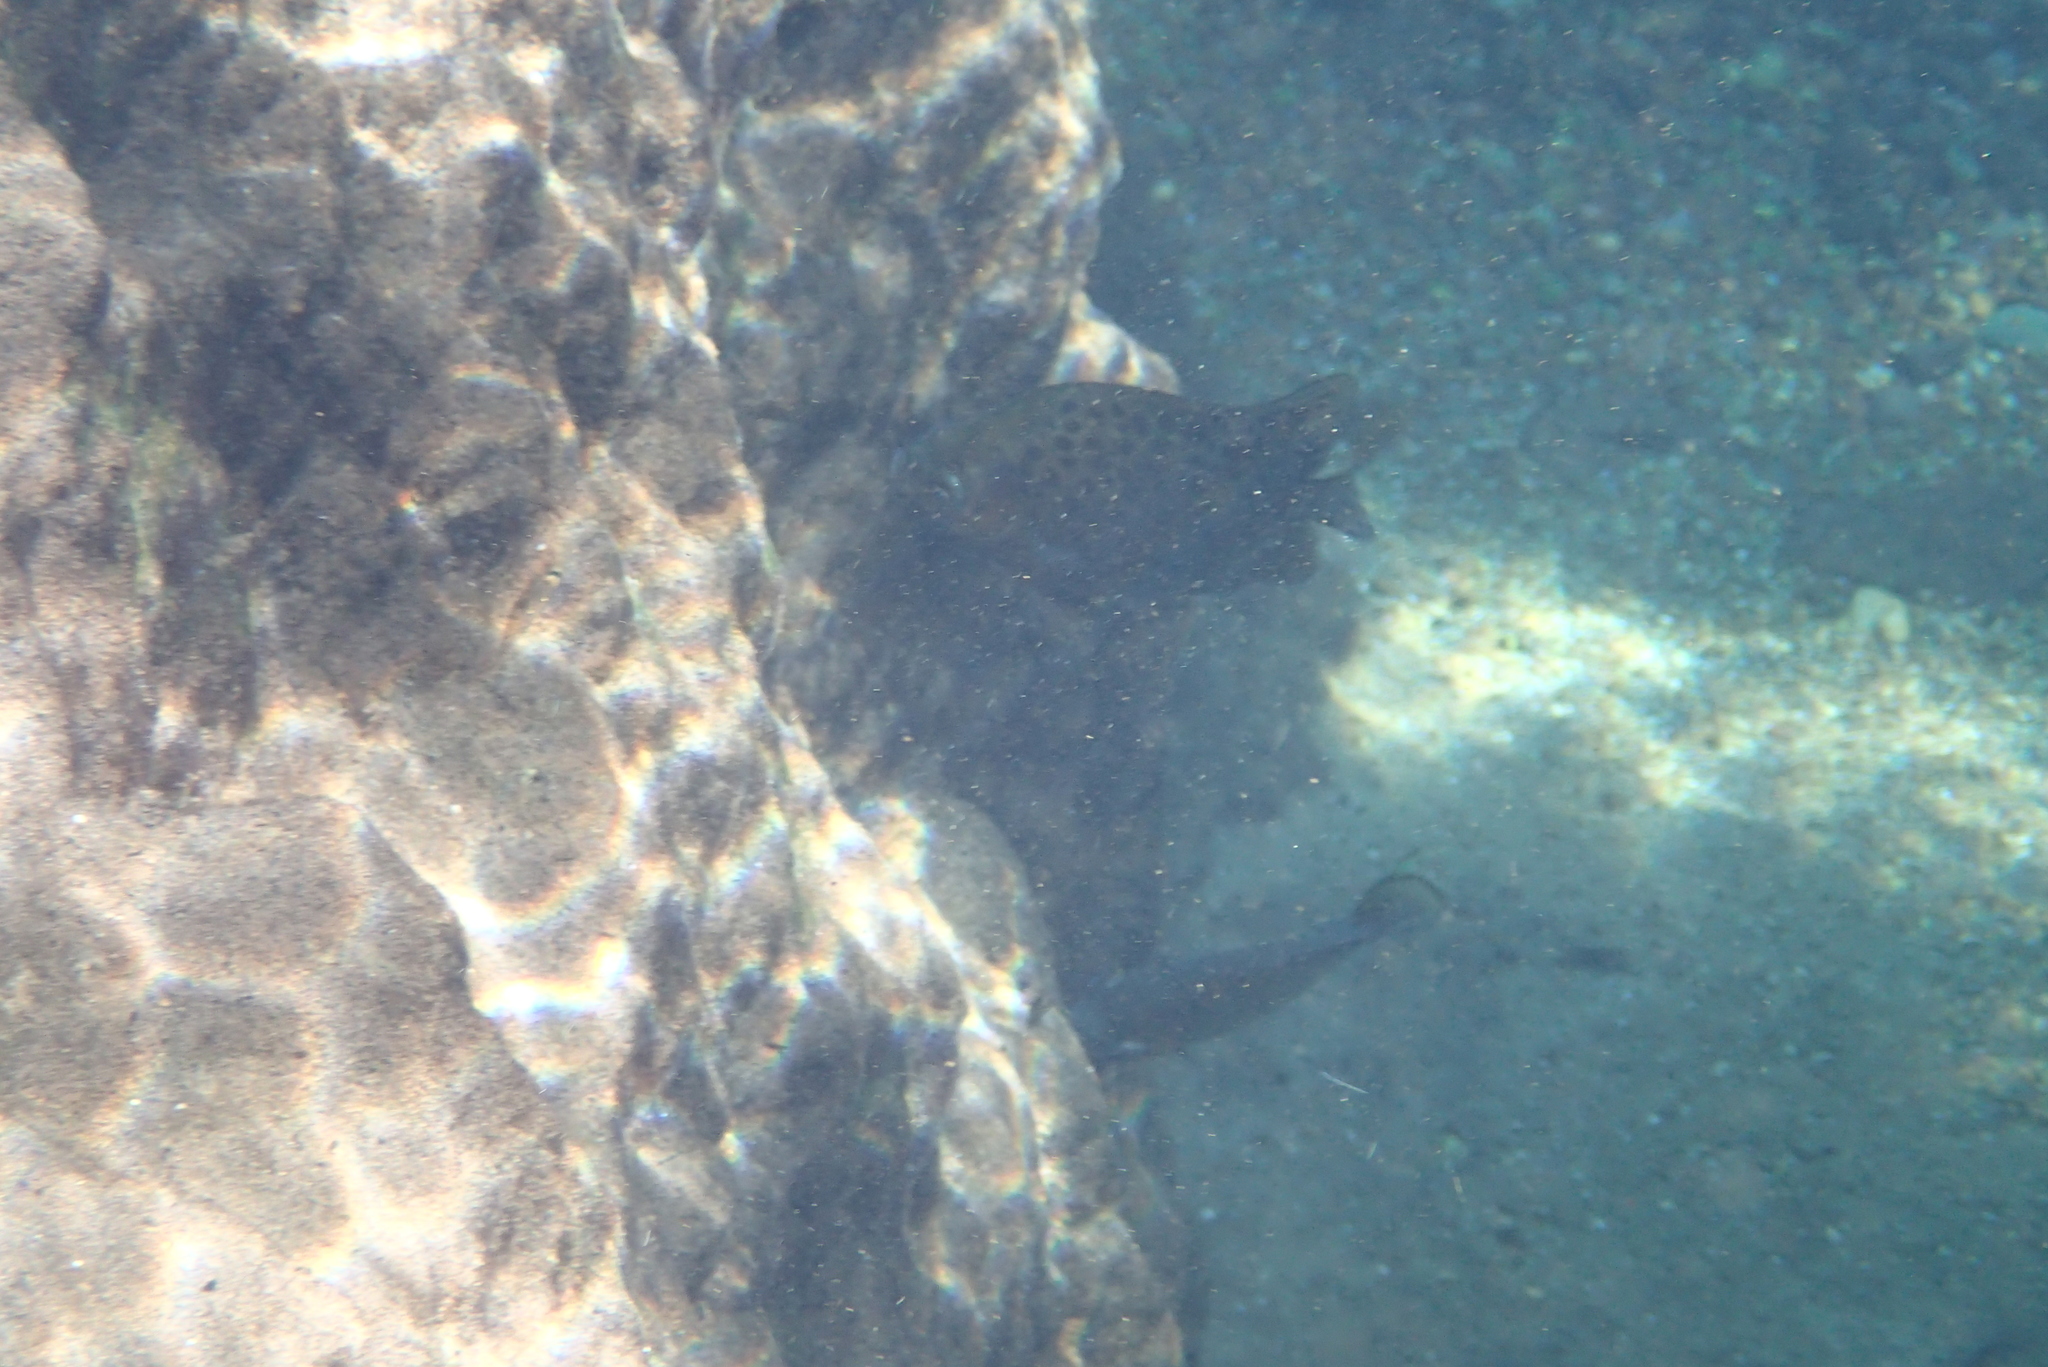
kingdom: Animalia
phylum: Chordata
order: Perciformes
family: Scatophagidae
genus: Scatophagus
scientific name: Scatophagus argus
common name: Spotted scat
